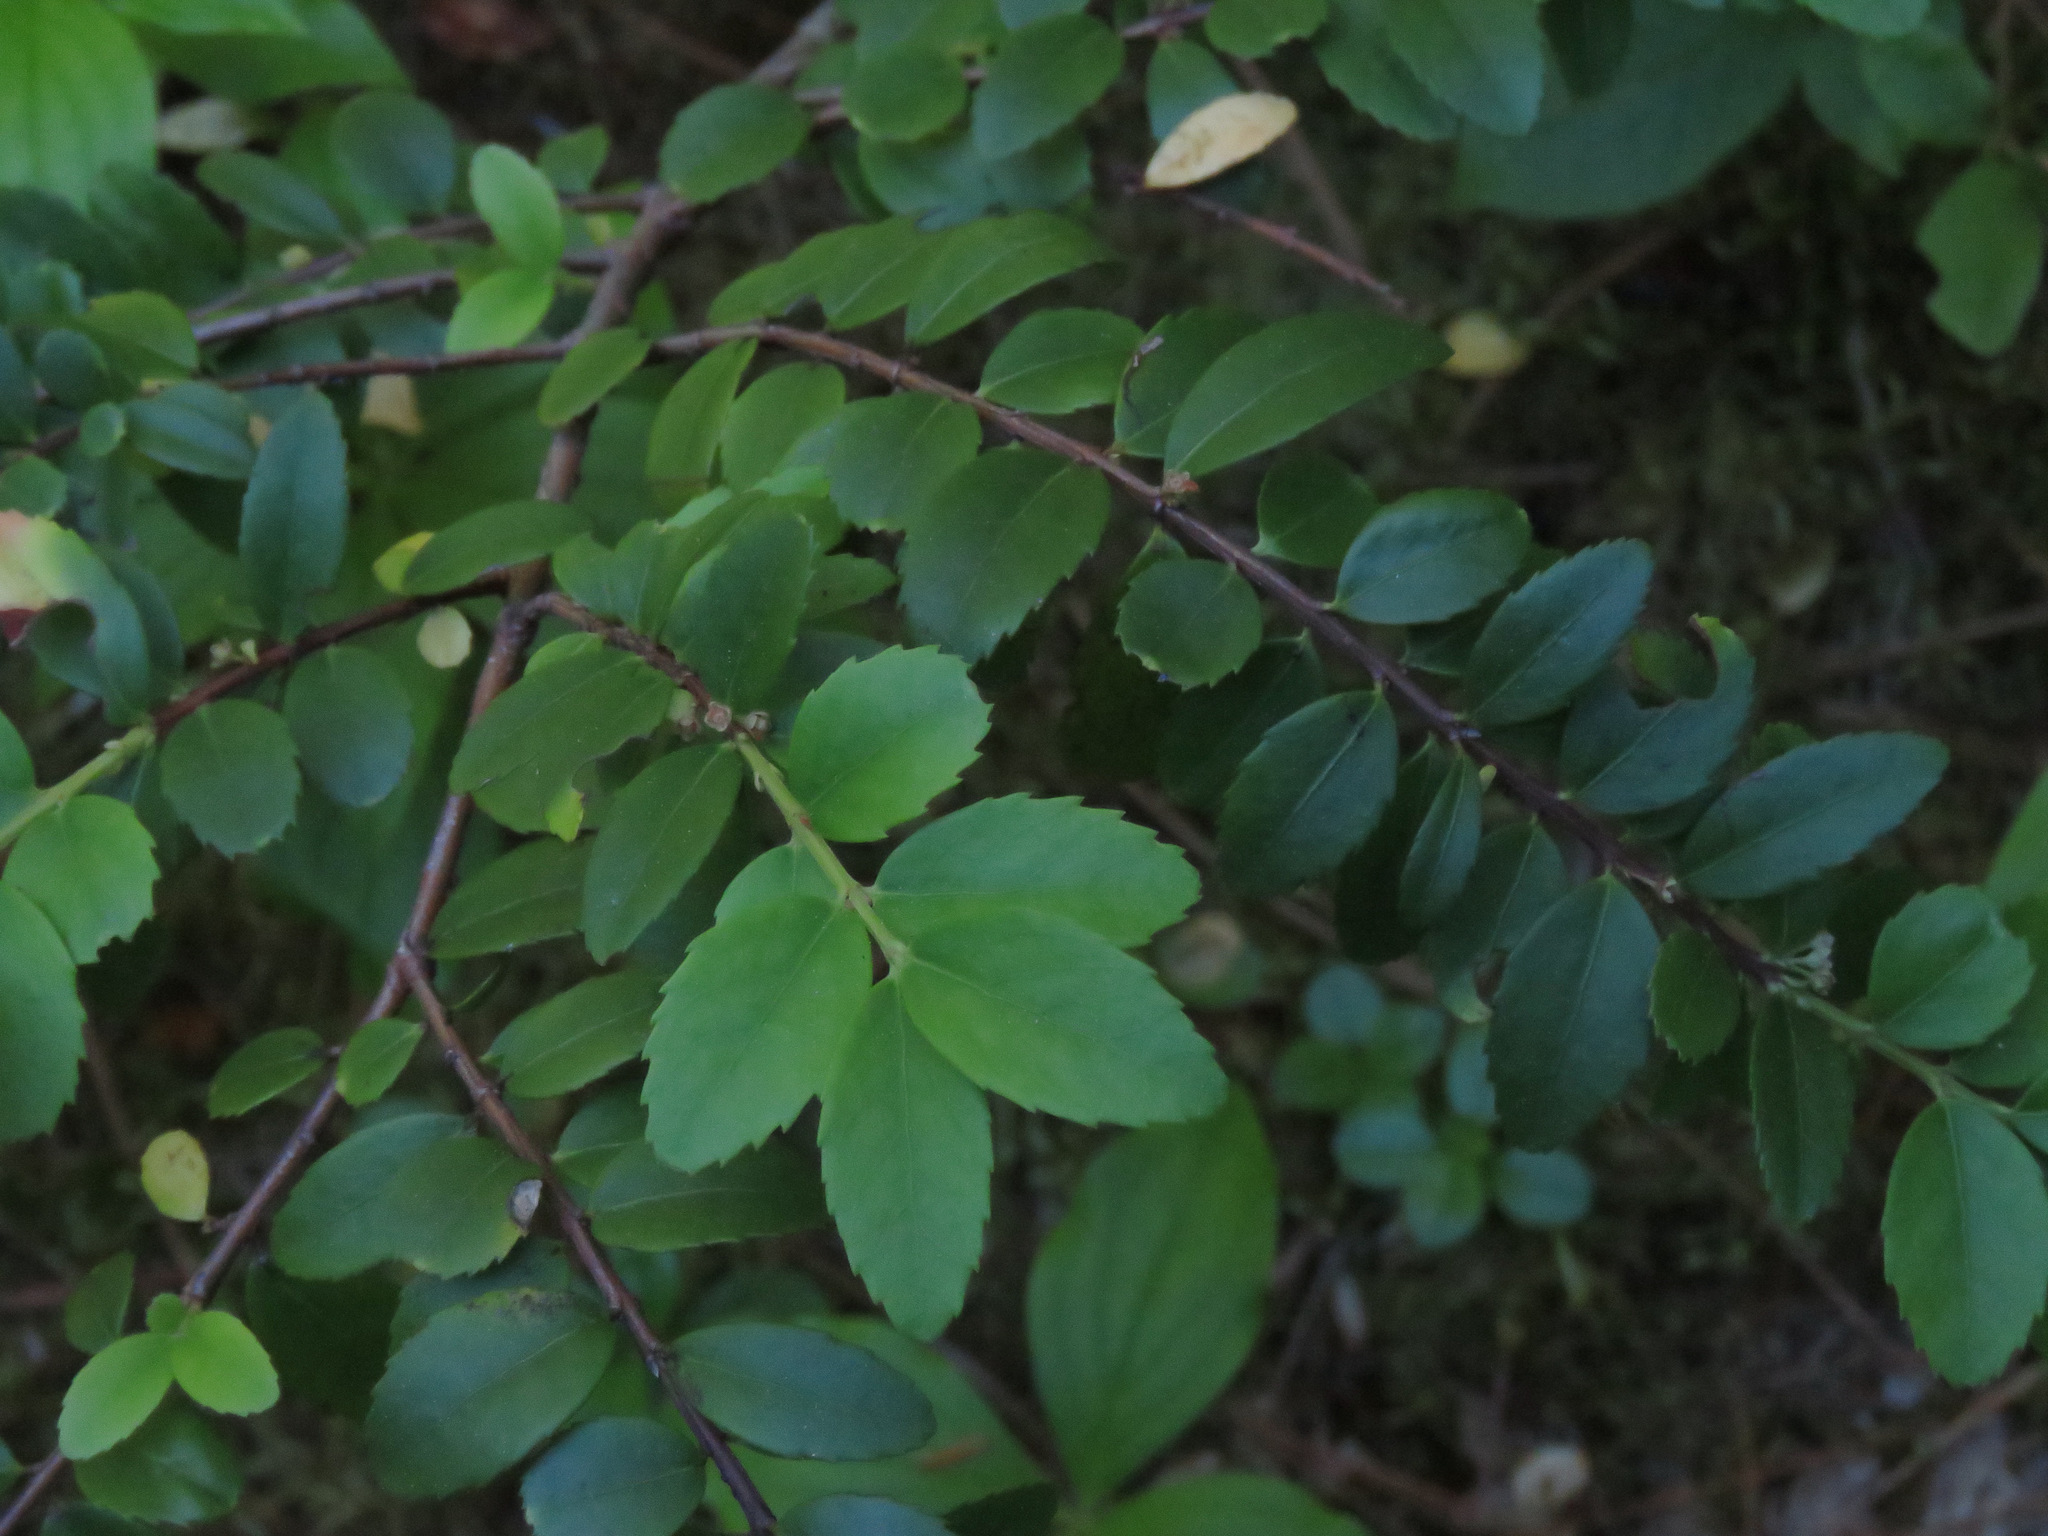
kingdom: Plantae
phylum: Tracheophyta
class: Magnoliopsida
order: Celastrales
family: Celastraceae
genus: Paxistima
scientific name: Paxistima myrsinites
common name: Mountain-lover
